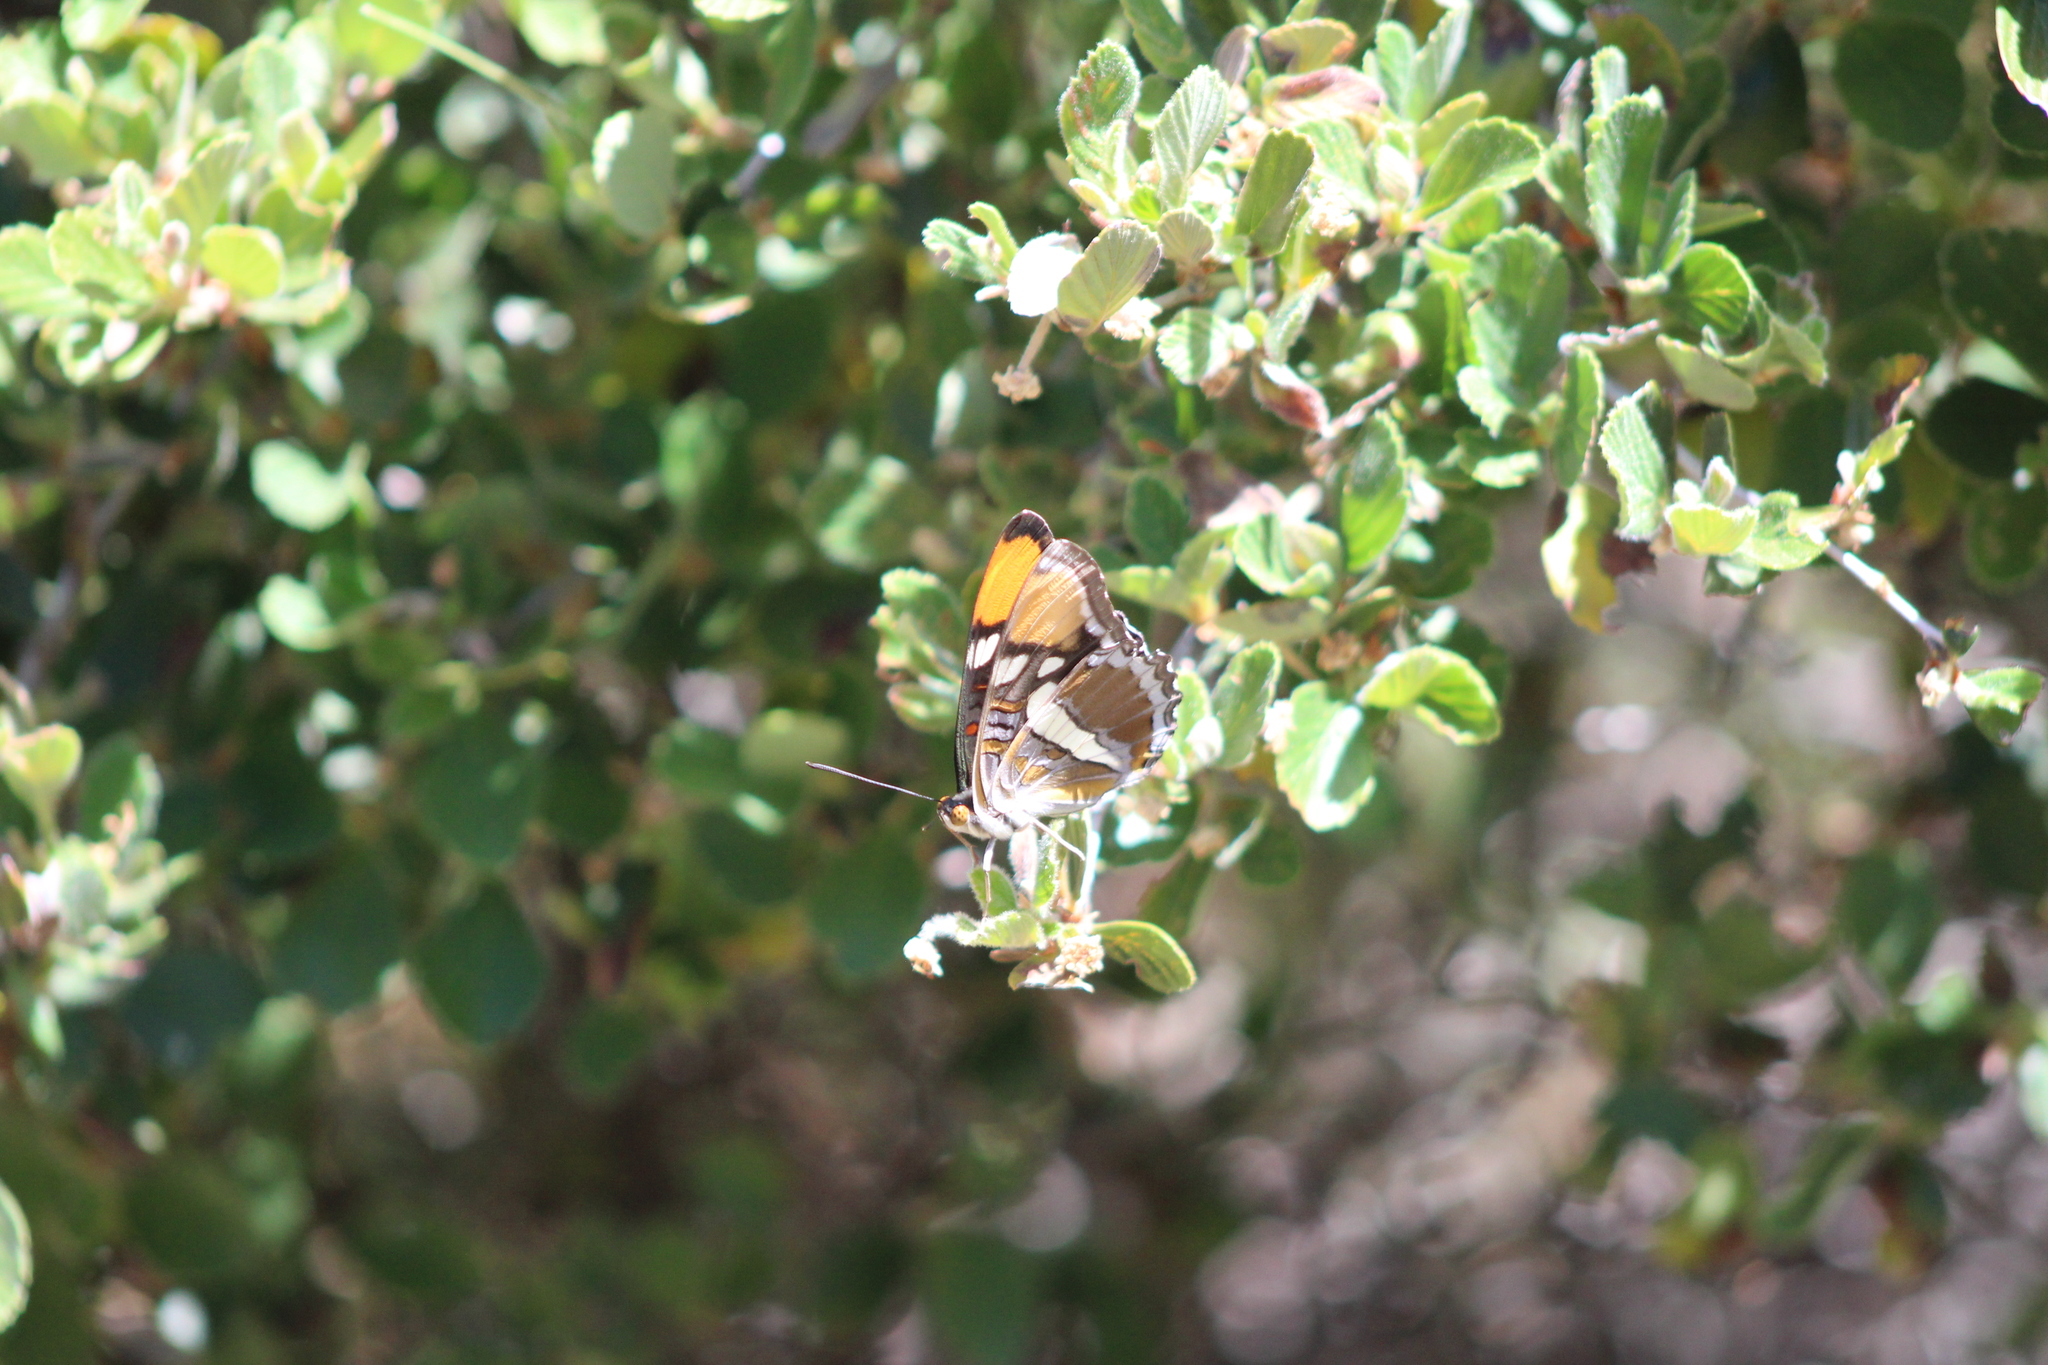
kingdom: Animalia
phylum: Arthropoda
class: Insecta
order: Lepidoptera
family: Nymphalidae
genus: Limenitis
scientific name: Limenitis bredowii
